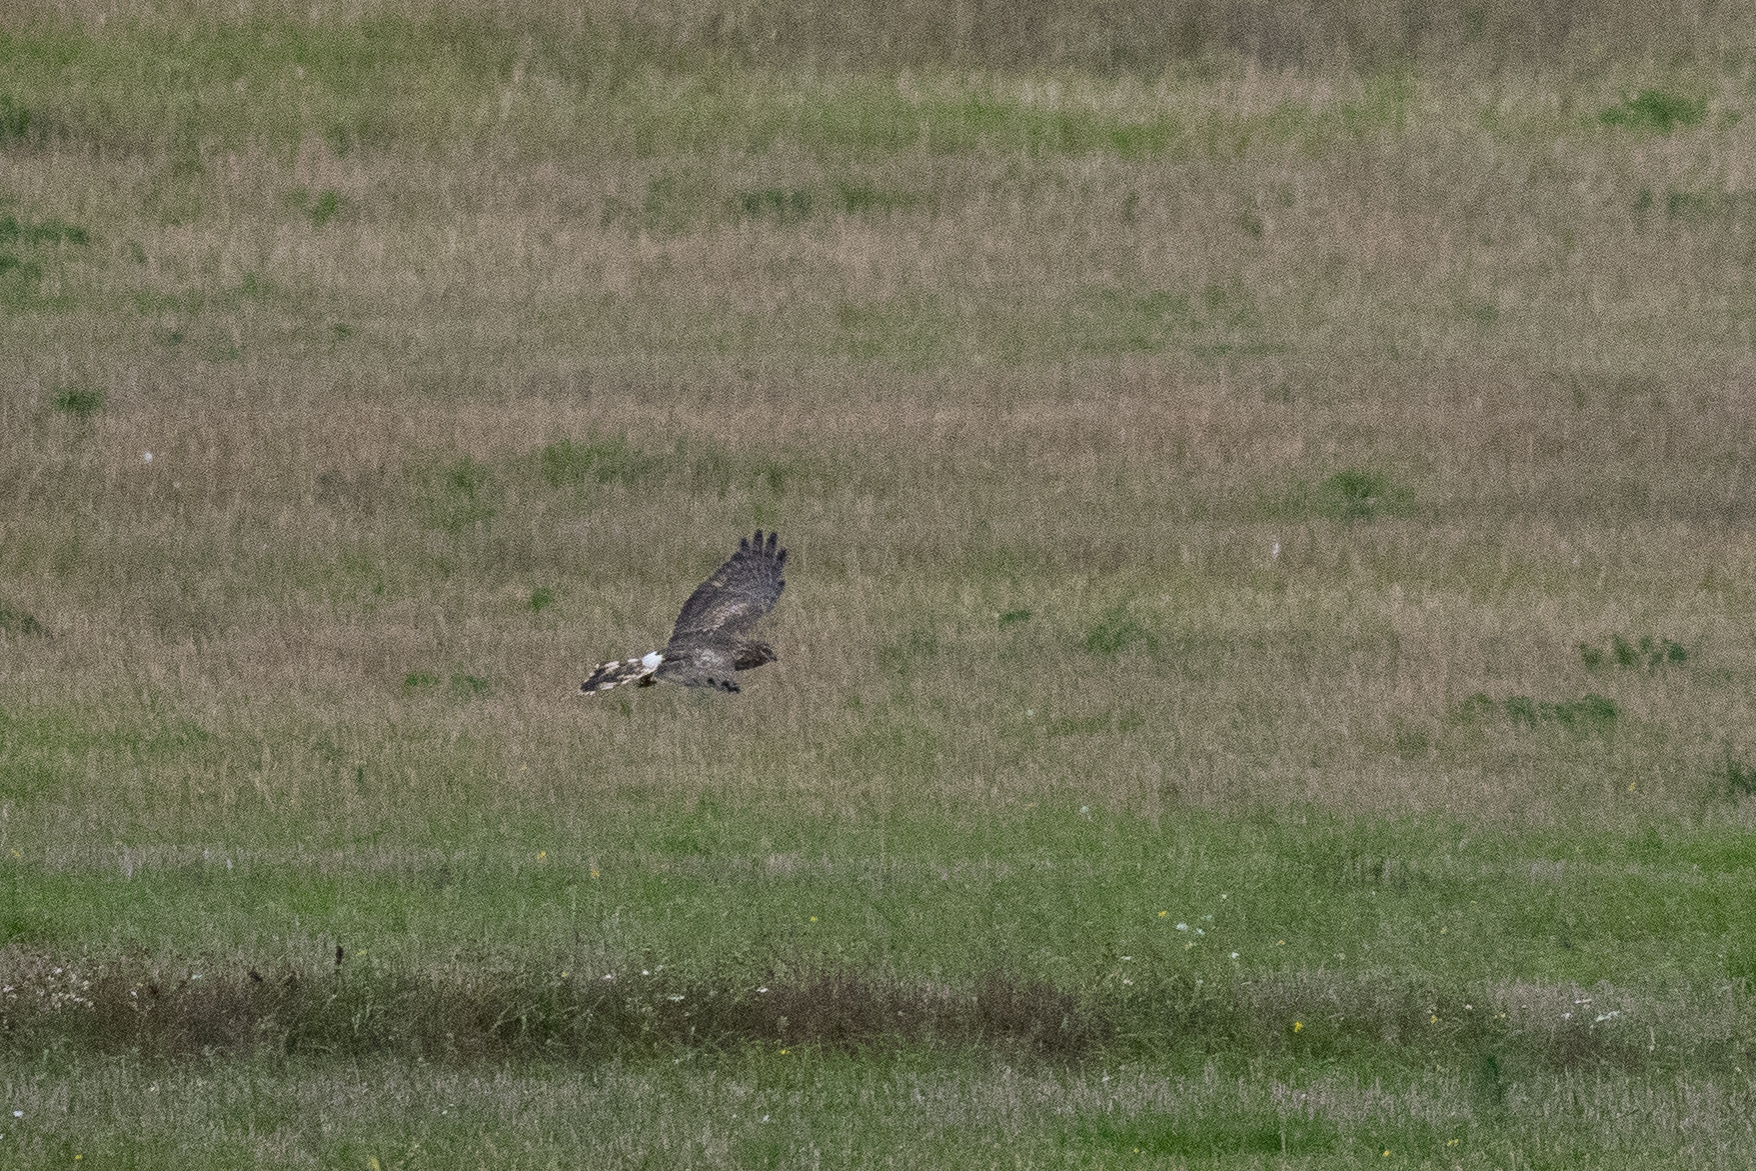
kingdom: Animalia
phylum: Chordata
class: Aves
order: Accipitriformes
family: Accipitridae
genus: Circus
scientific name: Circus cyaneus
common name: Hen harrier
